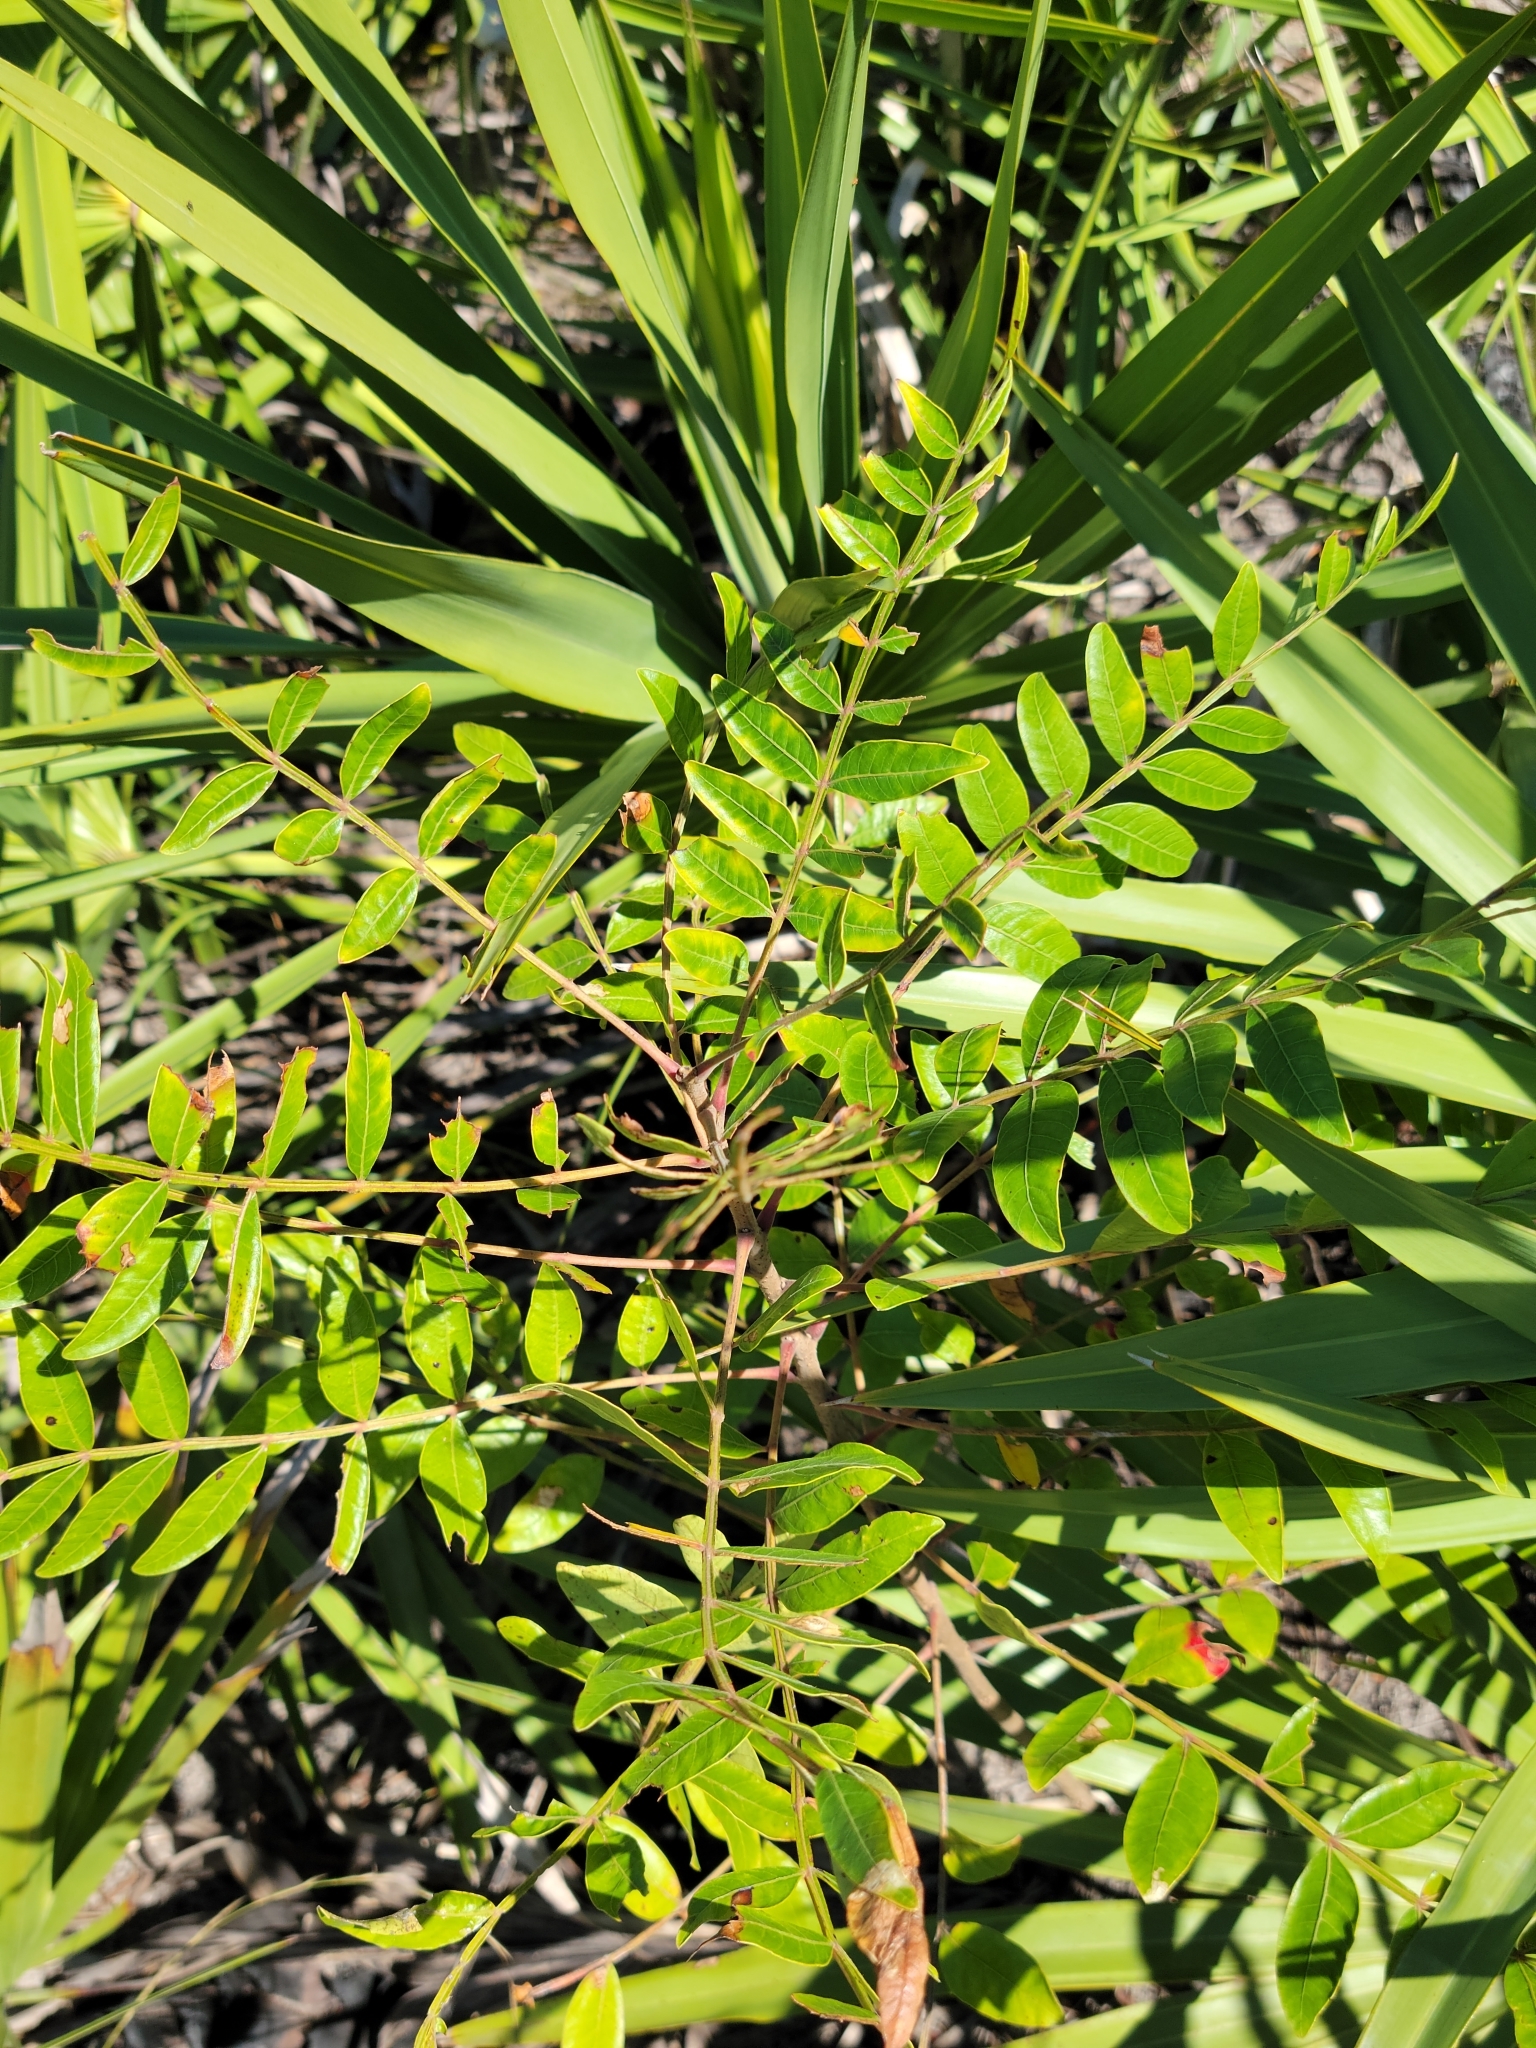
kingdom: Plantae
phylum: Tracheophyta
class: Magnoliopsida
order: Sapindales
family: Anacardiaceae
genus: Rhus
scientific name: Rhus copallina
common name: Shining sumac
